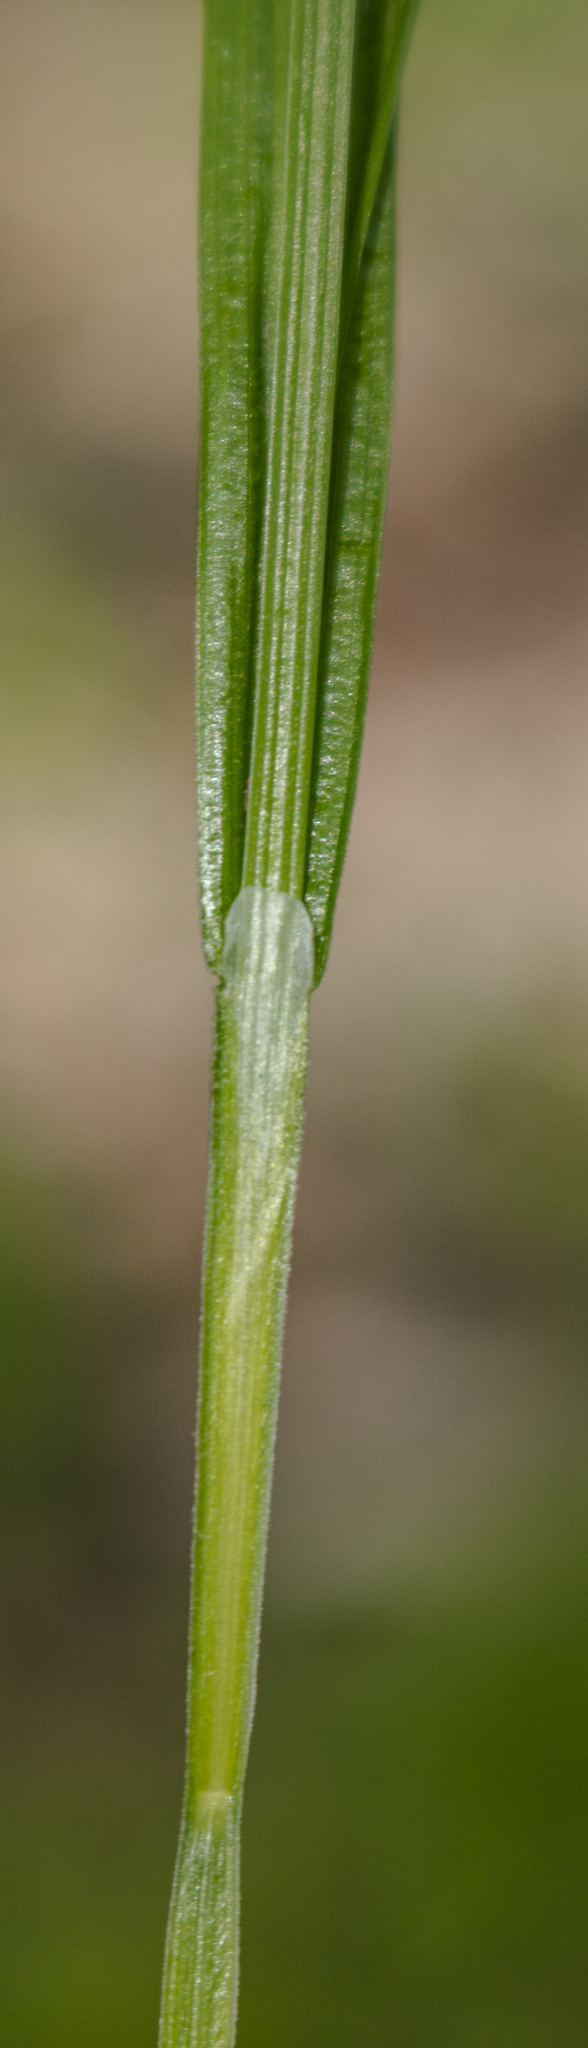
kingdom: Plantae
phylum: Tracheophyta
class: Liliopsida
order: Poales
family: Cyperaceae
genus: Carex
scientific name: Carex blanda
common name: Bland sedge
